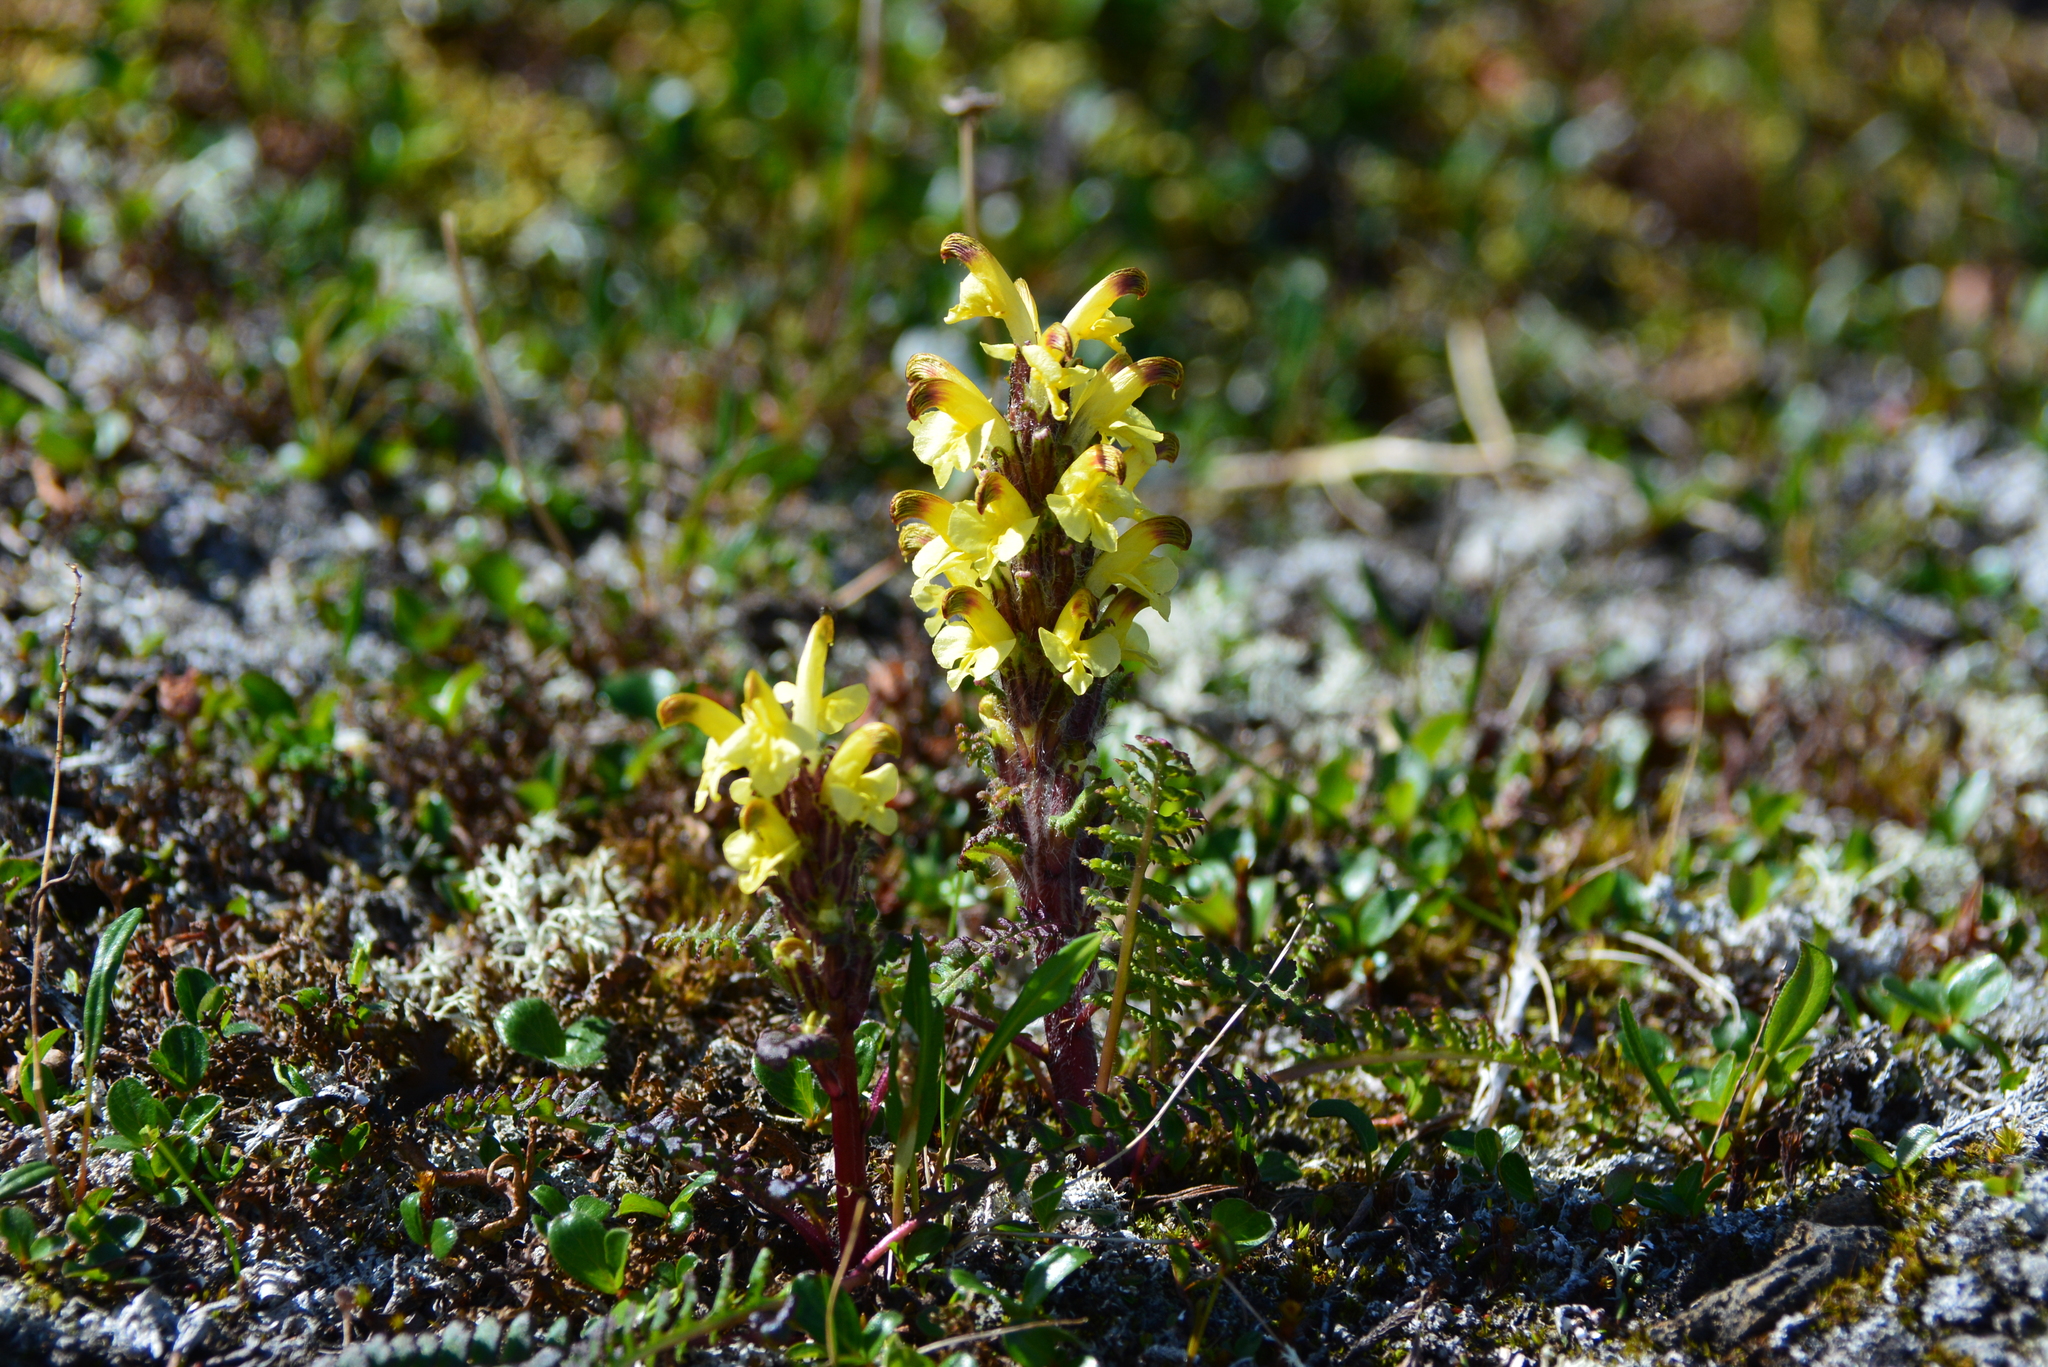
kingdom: Plantae
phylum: Tracheophyta
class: Magnoliopsida
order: Lamiales
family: Orobanchaceae
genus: Pedicularis
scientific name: Pedicularis oederi
